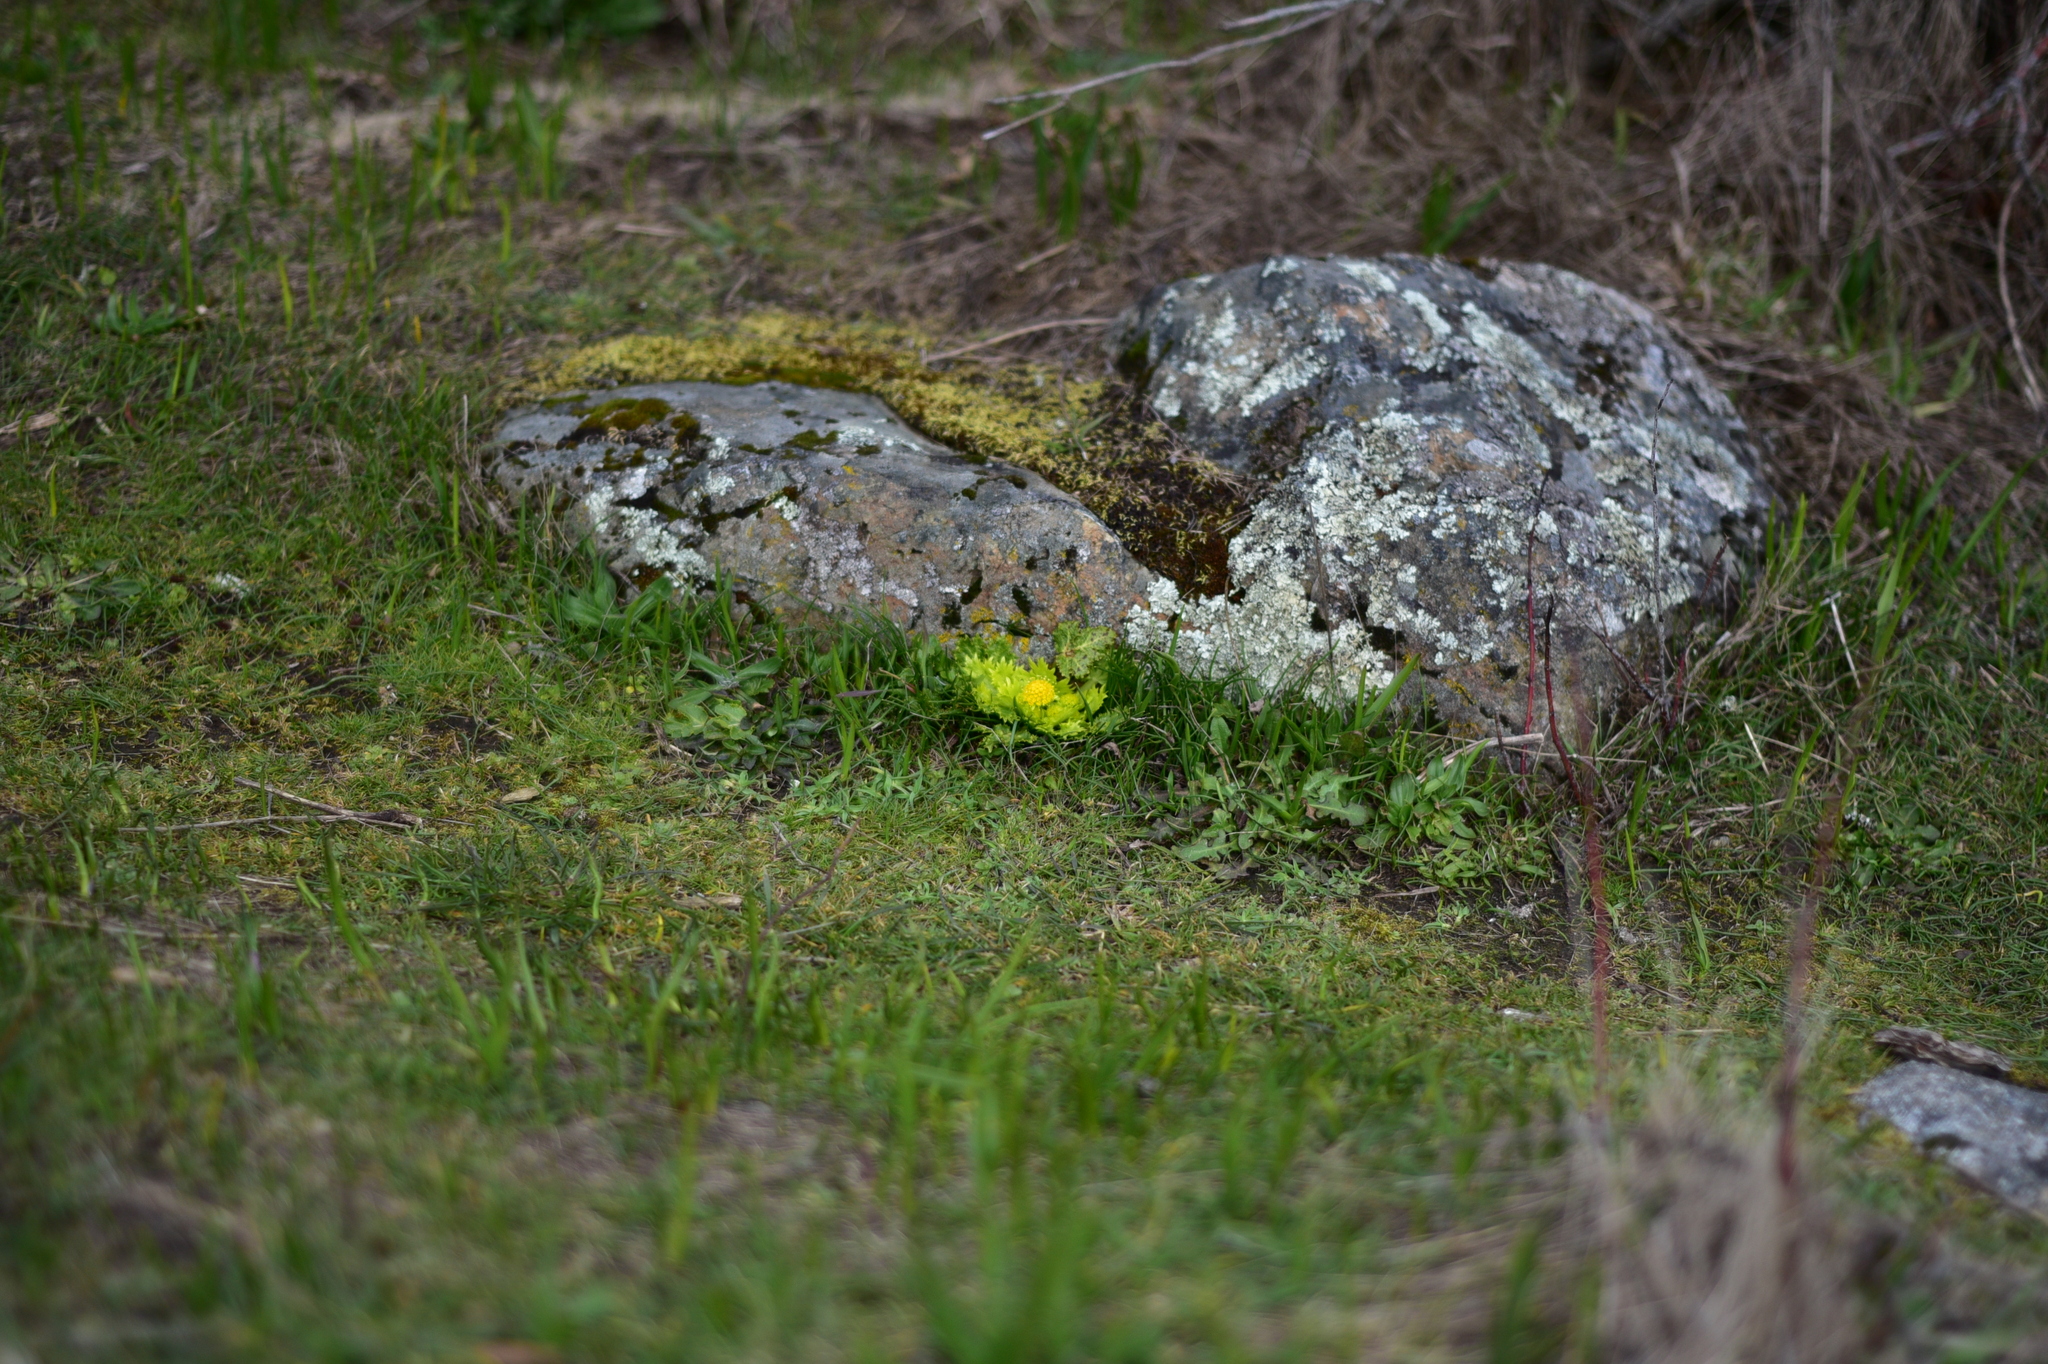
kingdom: Plantae
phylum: Tracheophyta
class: Magnoliopsida
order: Apiales
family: Apiaceae
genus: Sanicula
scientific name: Sanicula arctopoides
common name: Footsteps-of-spring
